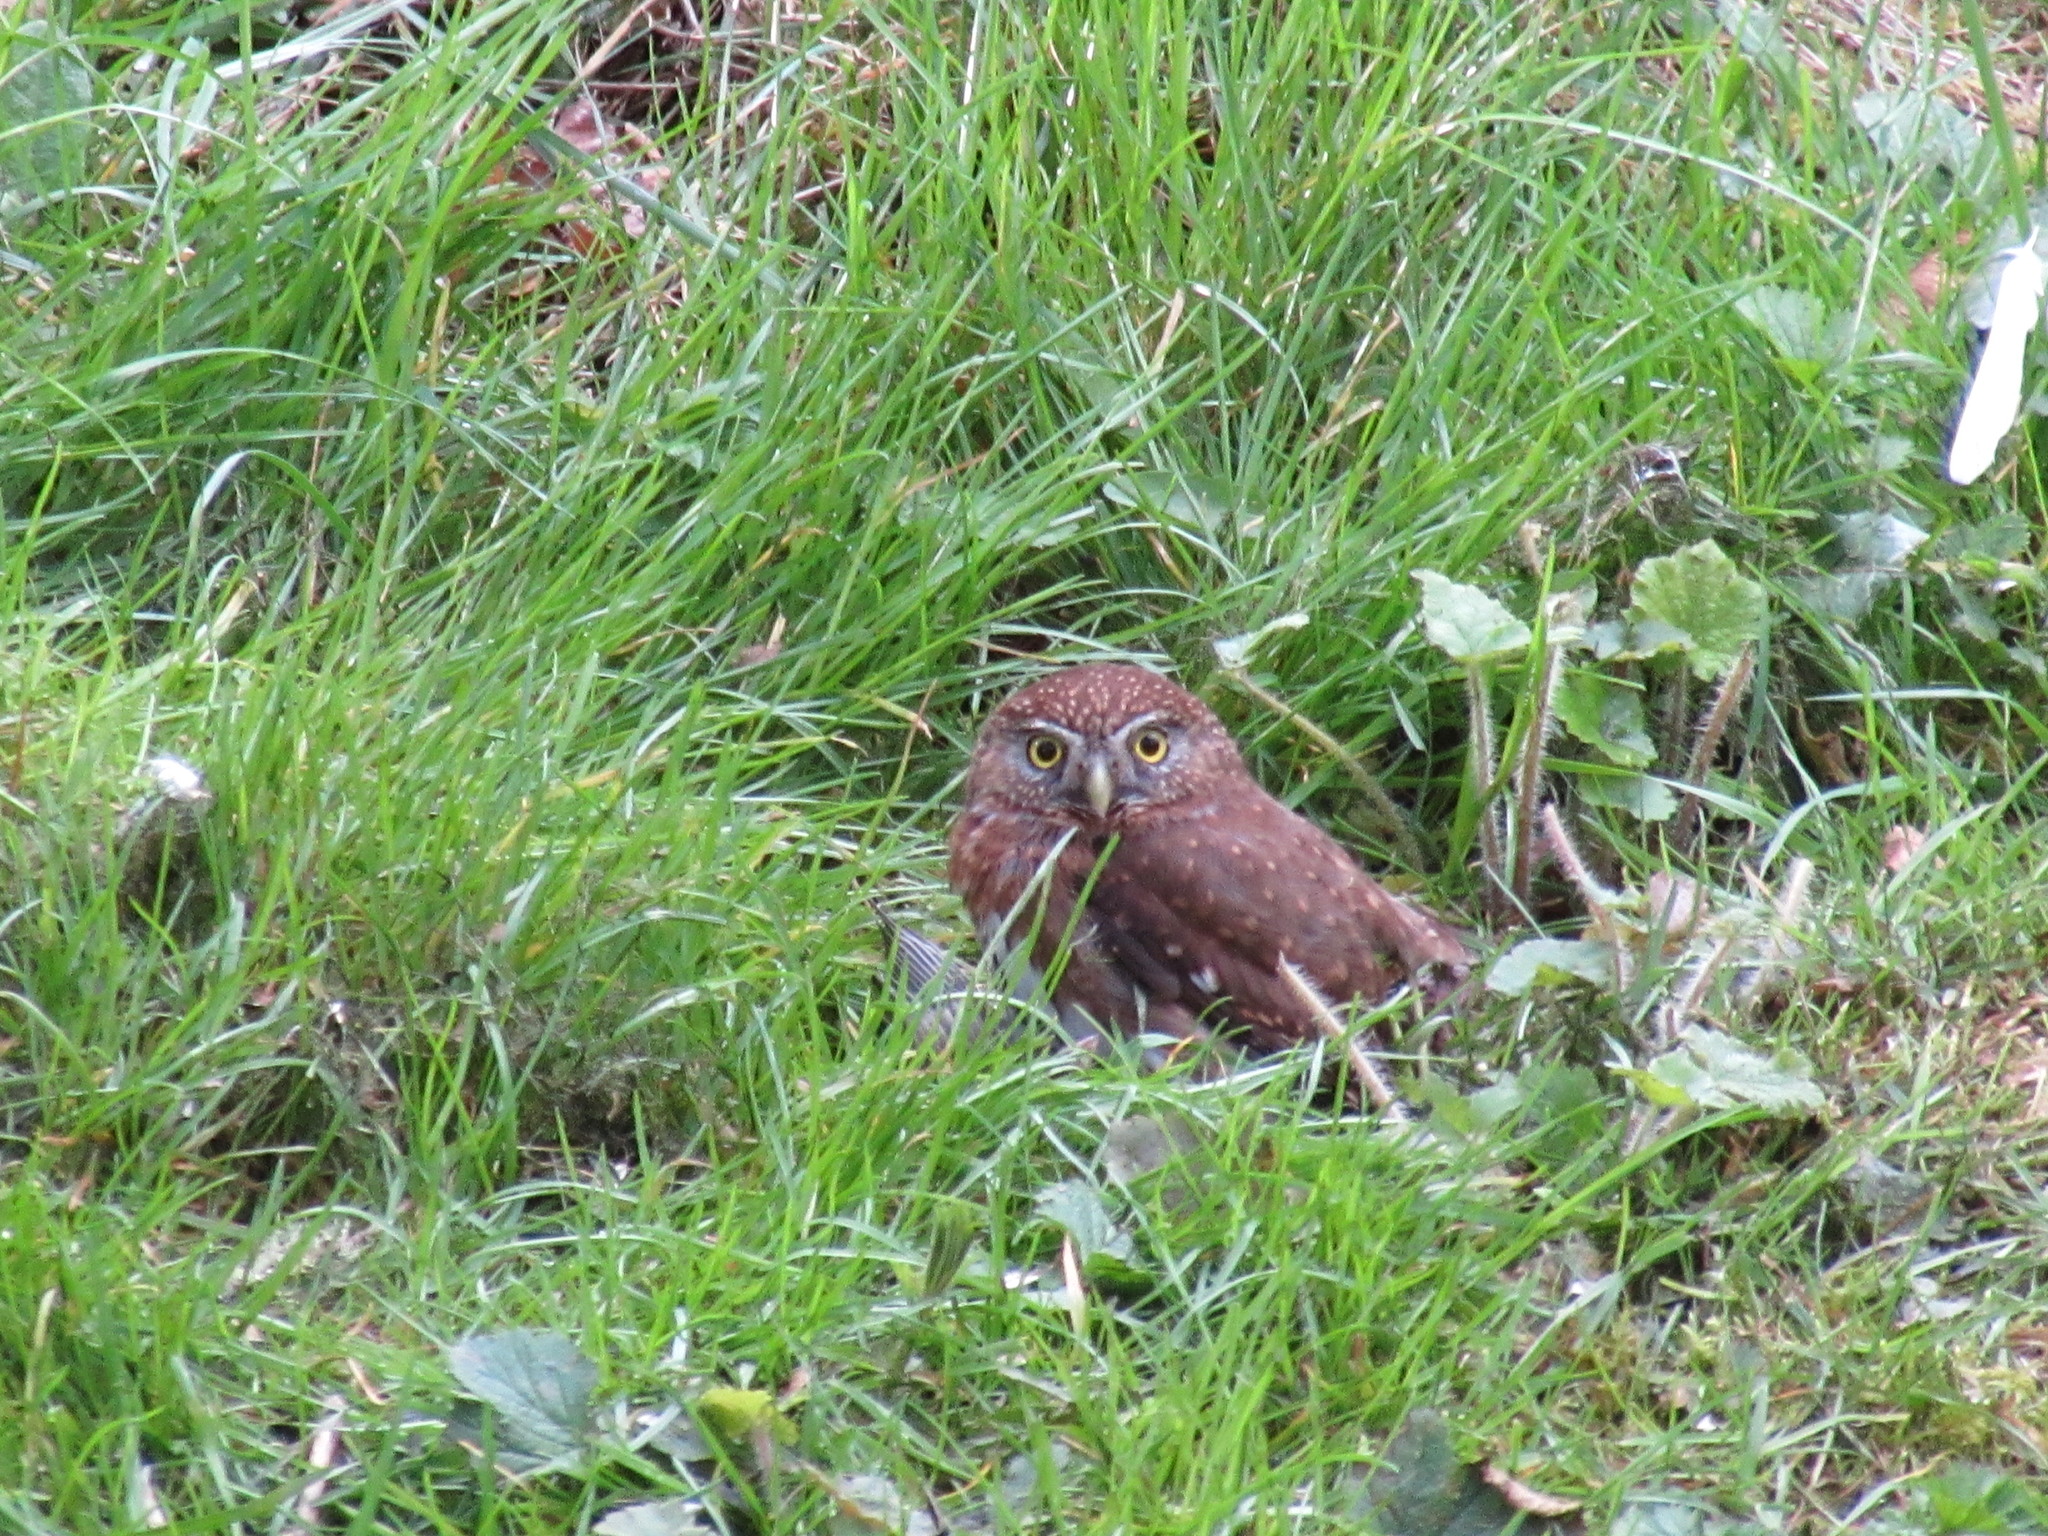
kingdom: Animalia
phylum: Chordata
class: Aves
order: Strigiformes
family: Strigidae
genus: Glaucidium
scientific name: Glaucidium gnoma
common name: Northern pygmy-owl
